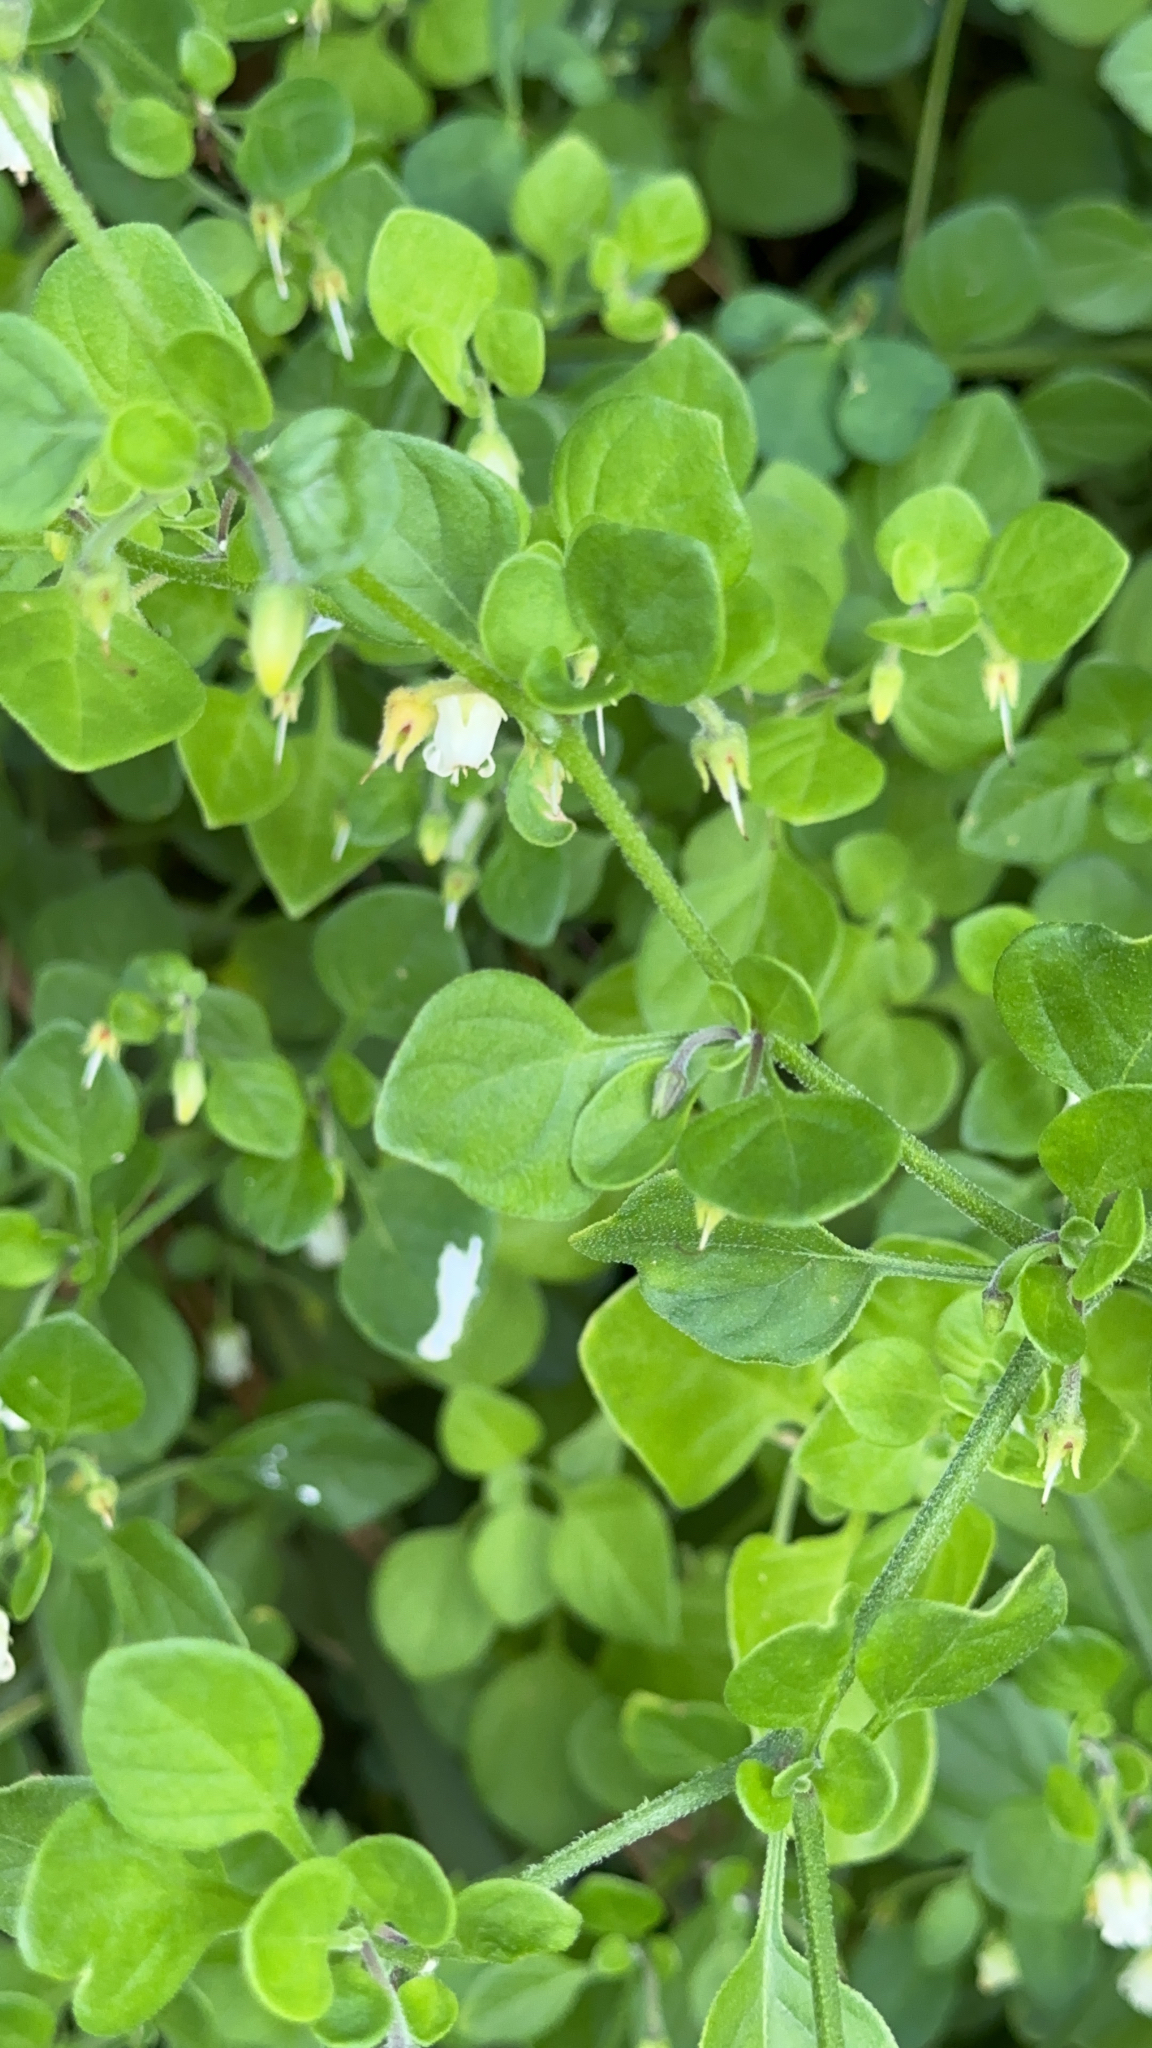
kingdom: Plantae
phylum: Tracheophyta
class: Magnoliopsida
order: Solanales
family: Solanaceae
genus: Salpichroa
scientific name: Salpichroa origanifolia
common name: Lily-of-the-valley-vine
